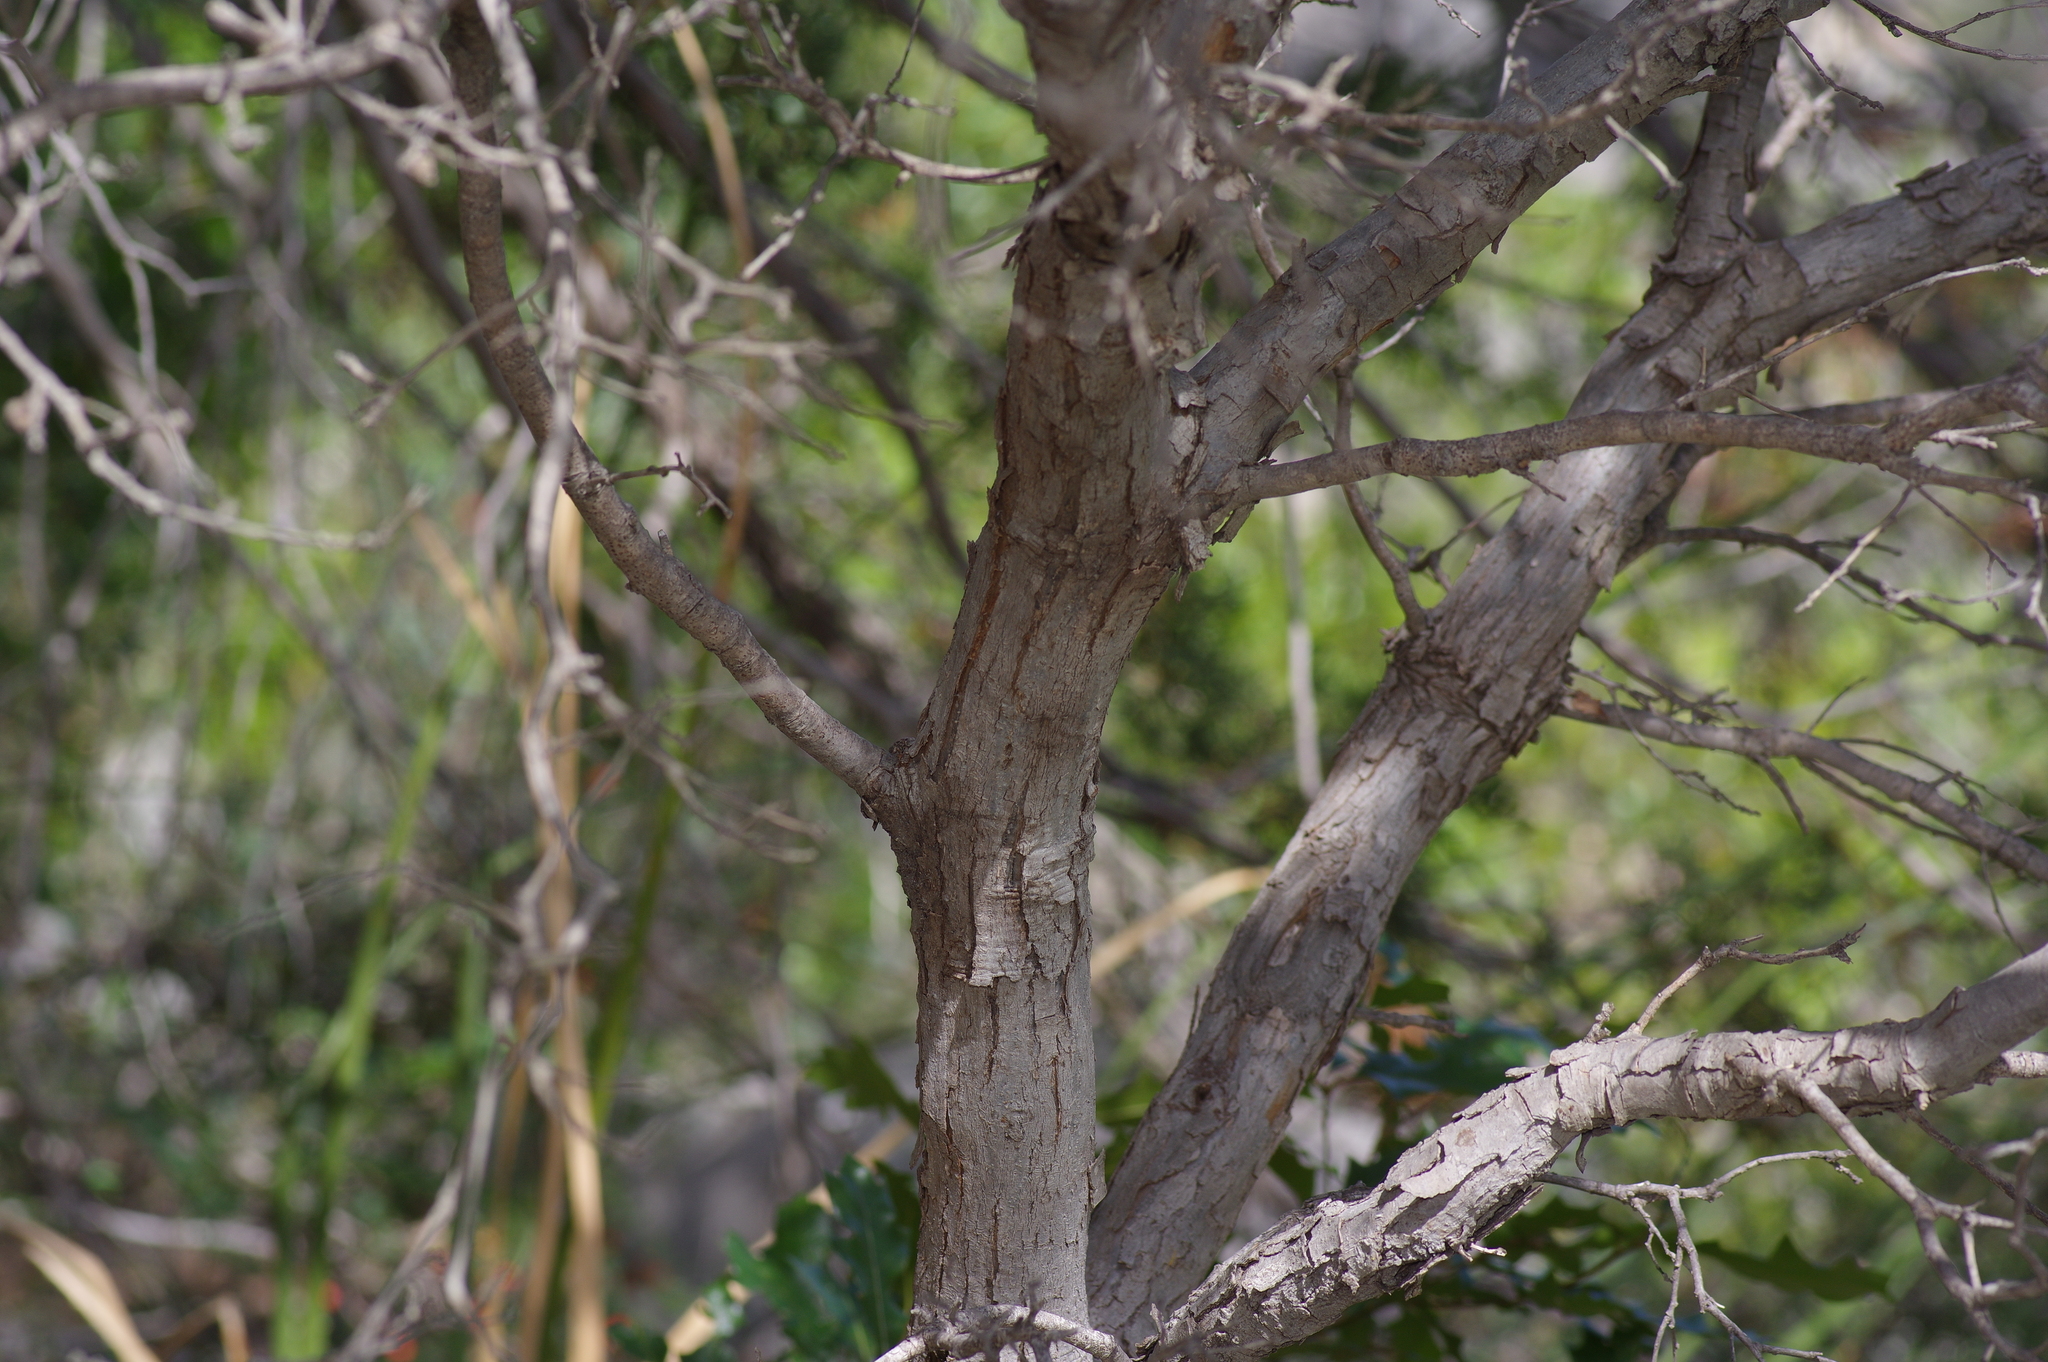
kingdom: Plantae
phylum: Tracheophyta
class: Magnoliopsida
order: Fagales
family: Fagaceae
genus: Quercus
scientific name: Quercus vaseyana
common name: Sandpaper oak
